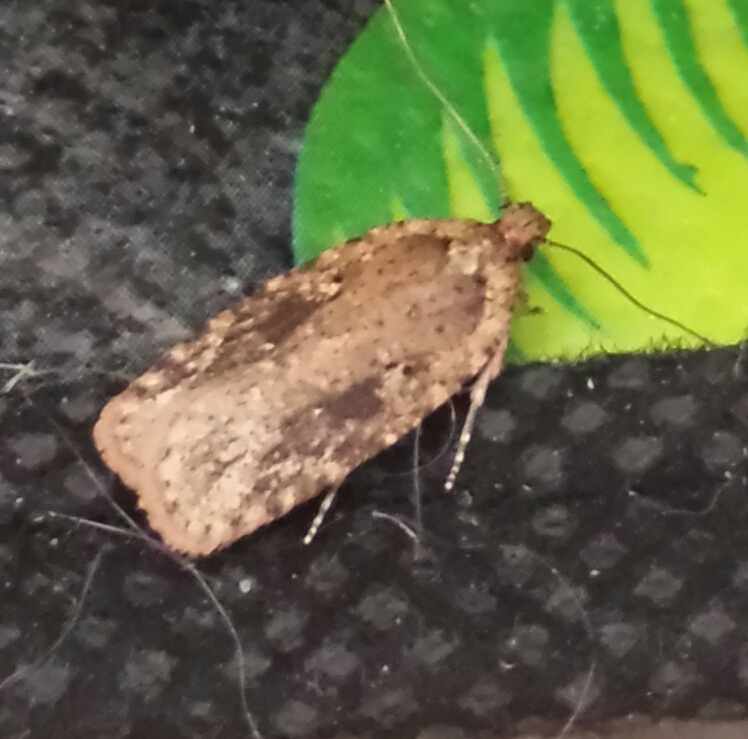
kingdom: Animalia
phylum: Arthropoda
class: Insecta
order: Lepidoptera
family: Depressariidae
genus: Agonopterix
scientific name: Agonopterix pulvipennella
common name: Goldenrod leafffolder
